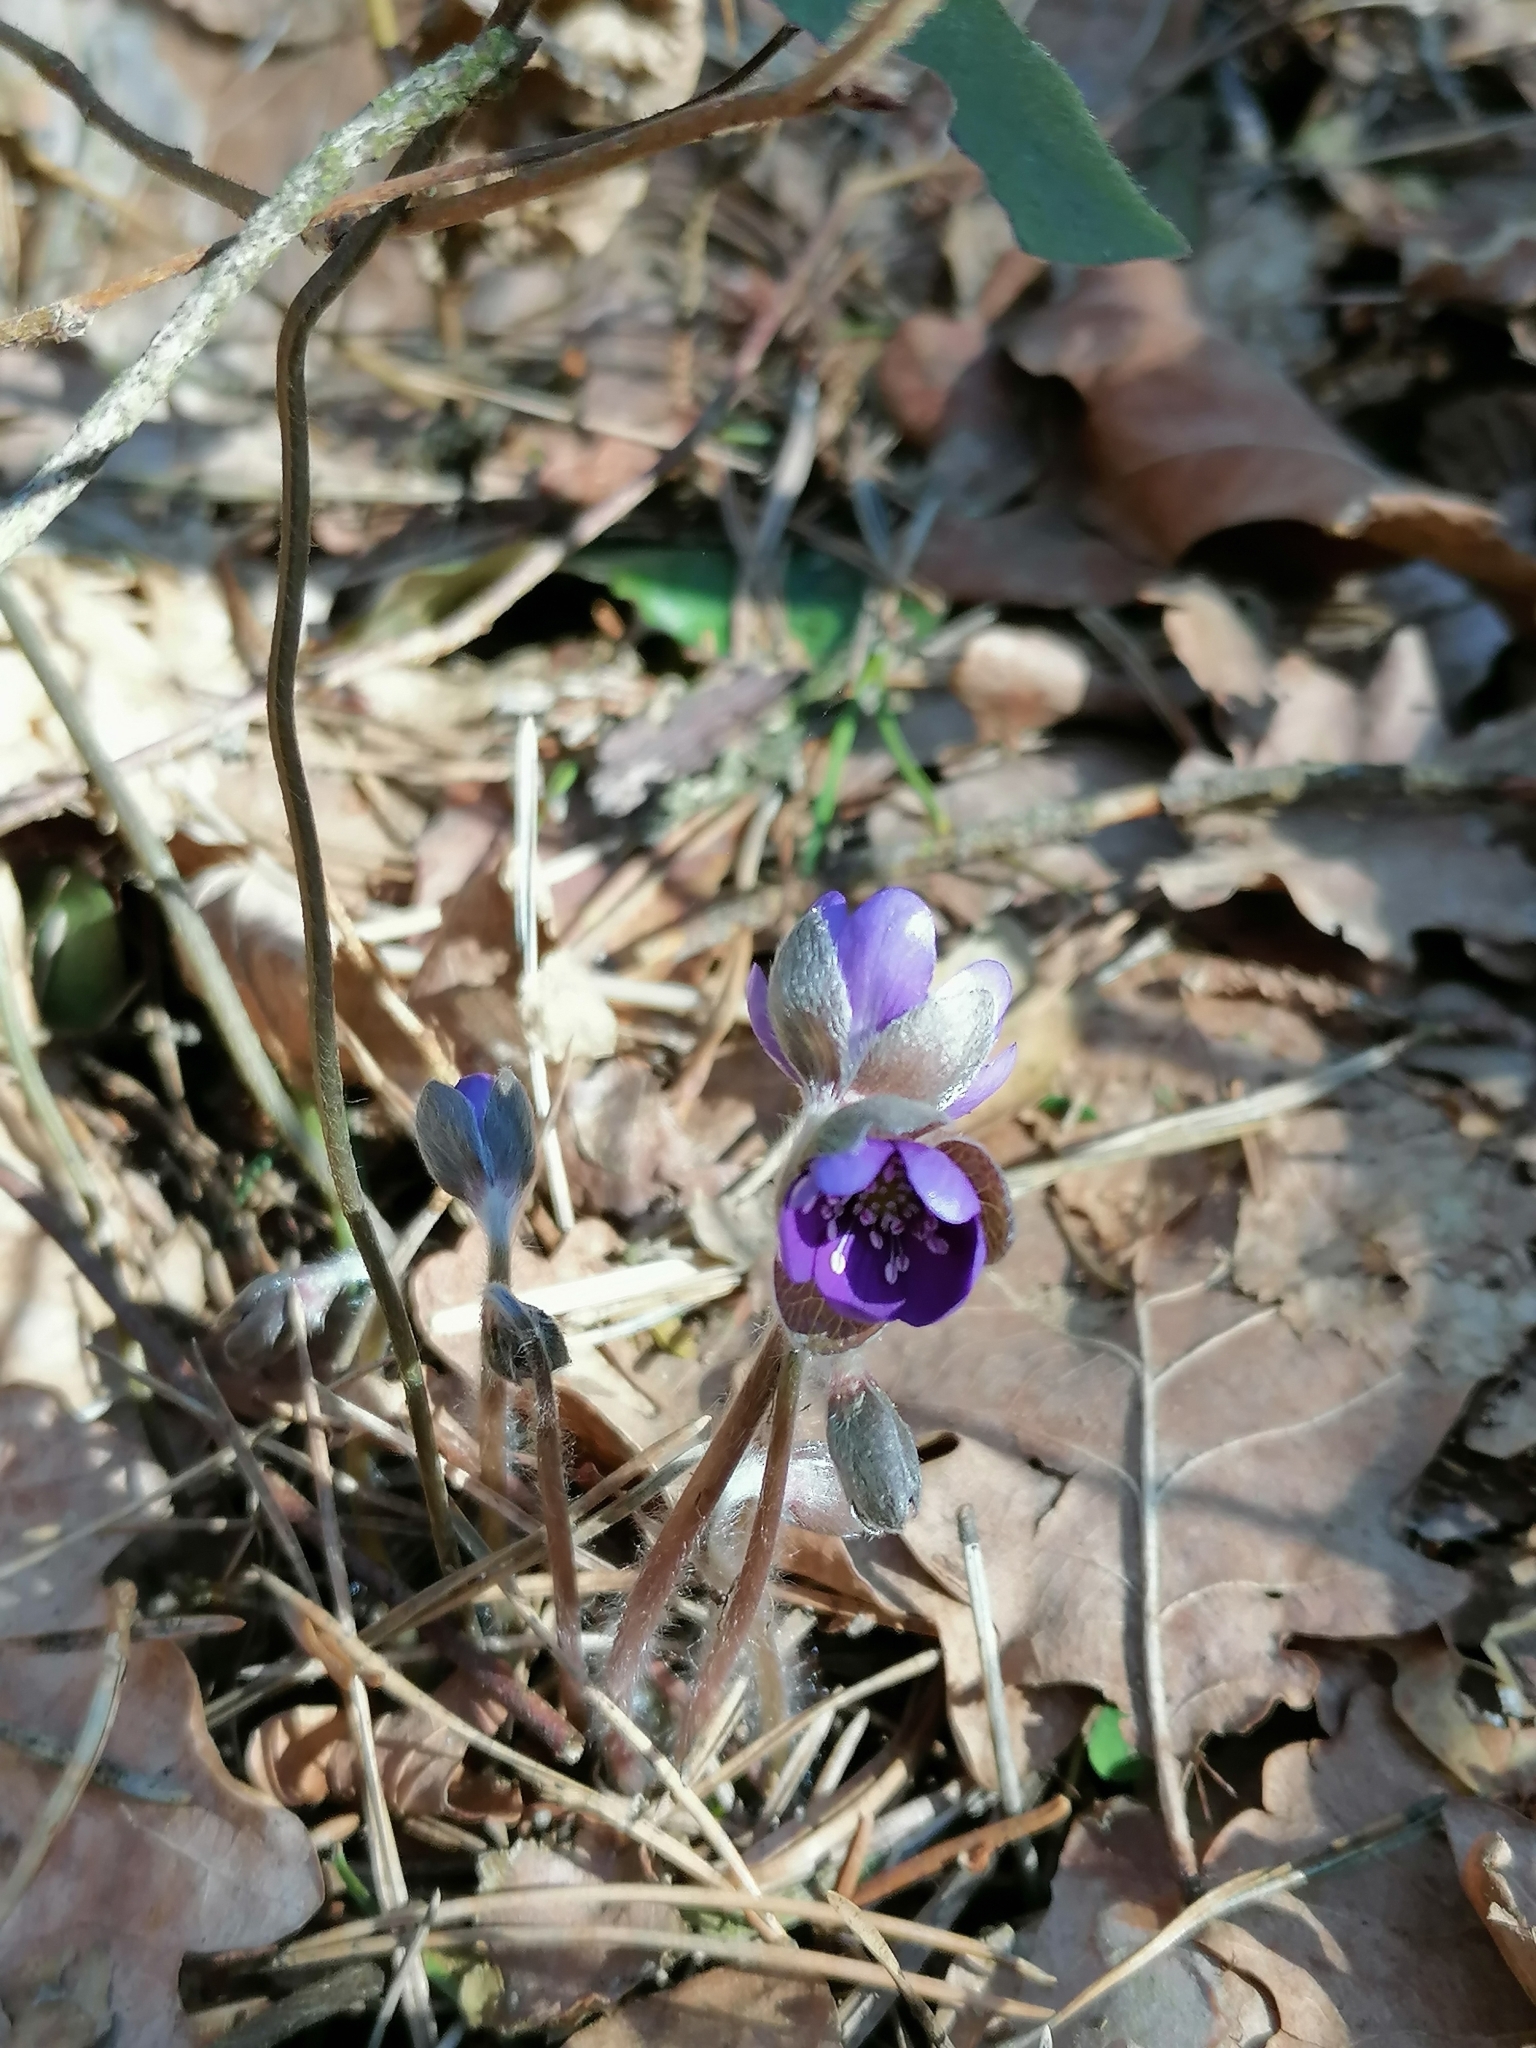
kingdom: Plantae
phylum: Tracheophyta
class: Magnoliopsida
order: Ranunculales
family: Ranunculaceae
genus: Hepatica
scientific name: Hepatica nobilis
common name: Liverleaf
